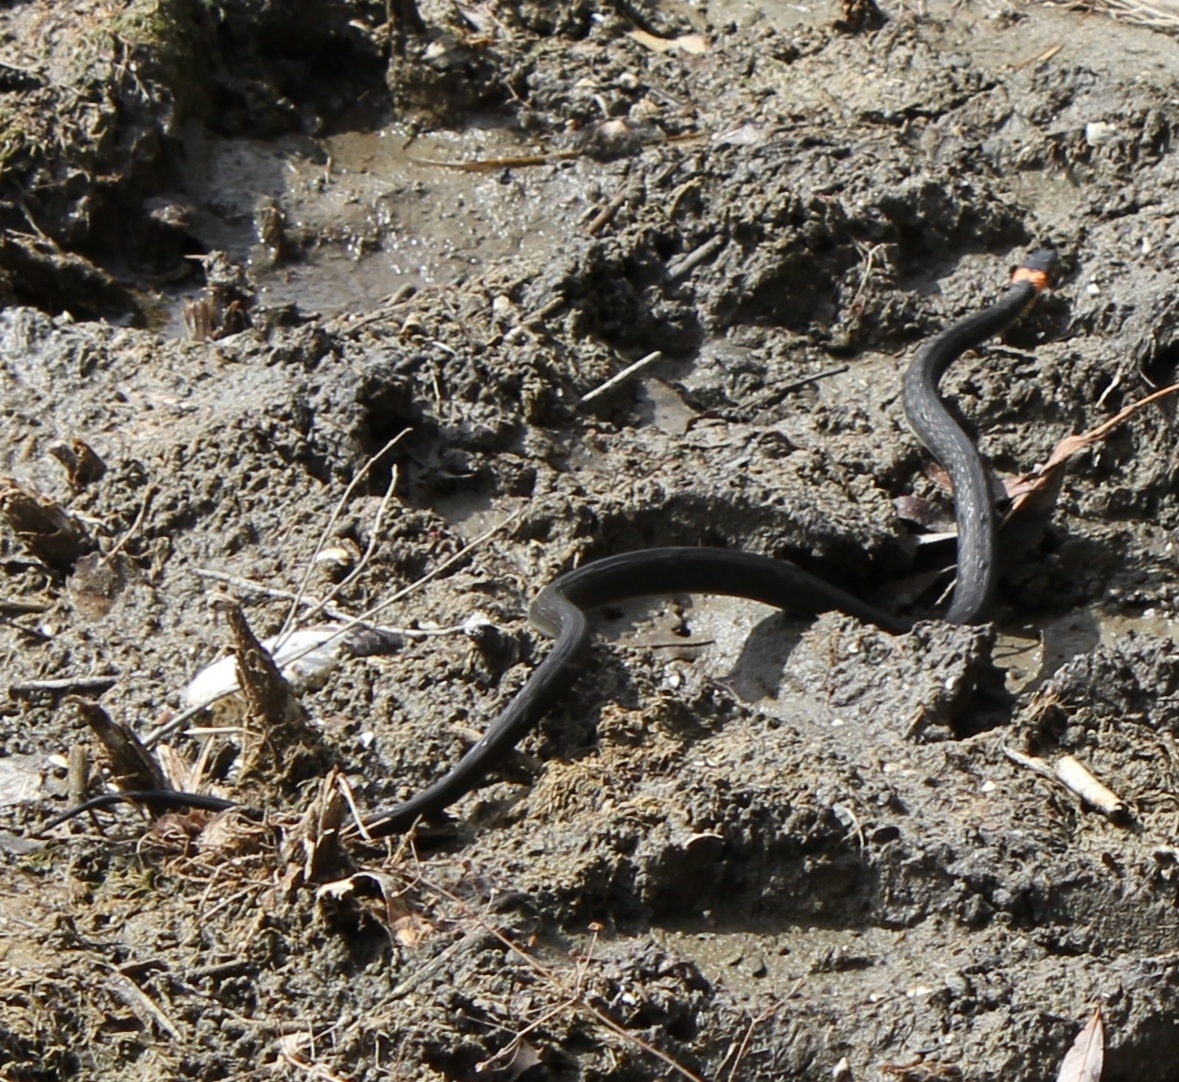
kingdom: Animalia
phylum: Chordata
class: Squamata
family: Colubridae
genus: Natrix
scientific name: Natrix natrix
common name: Grass snake
